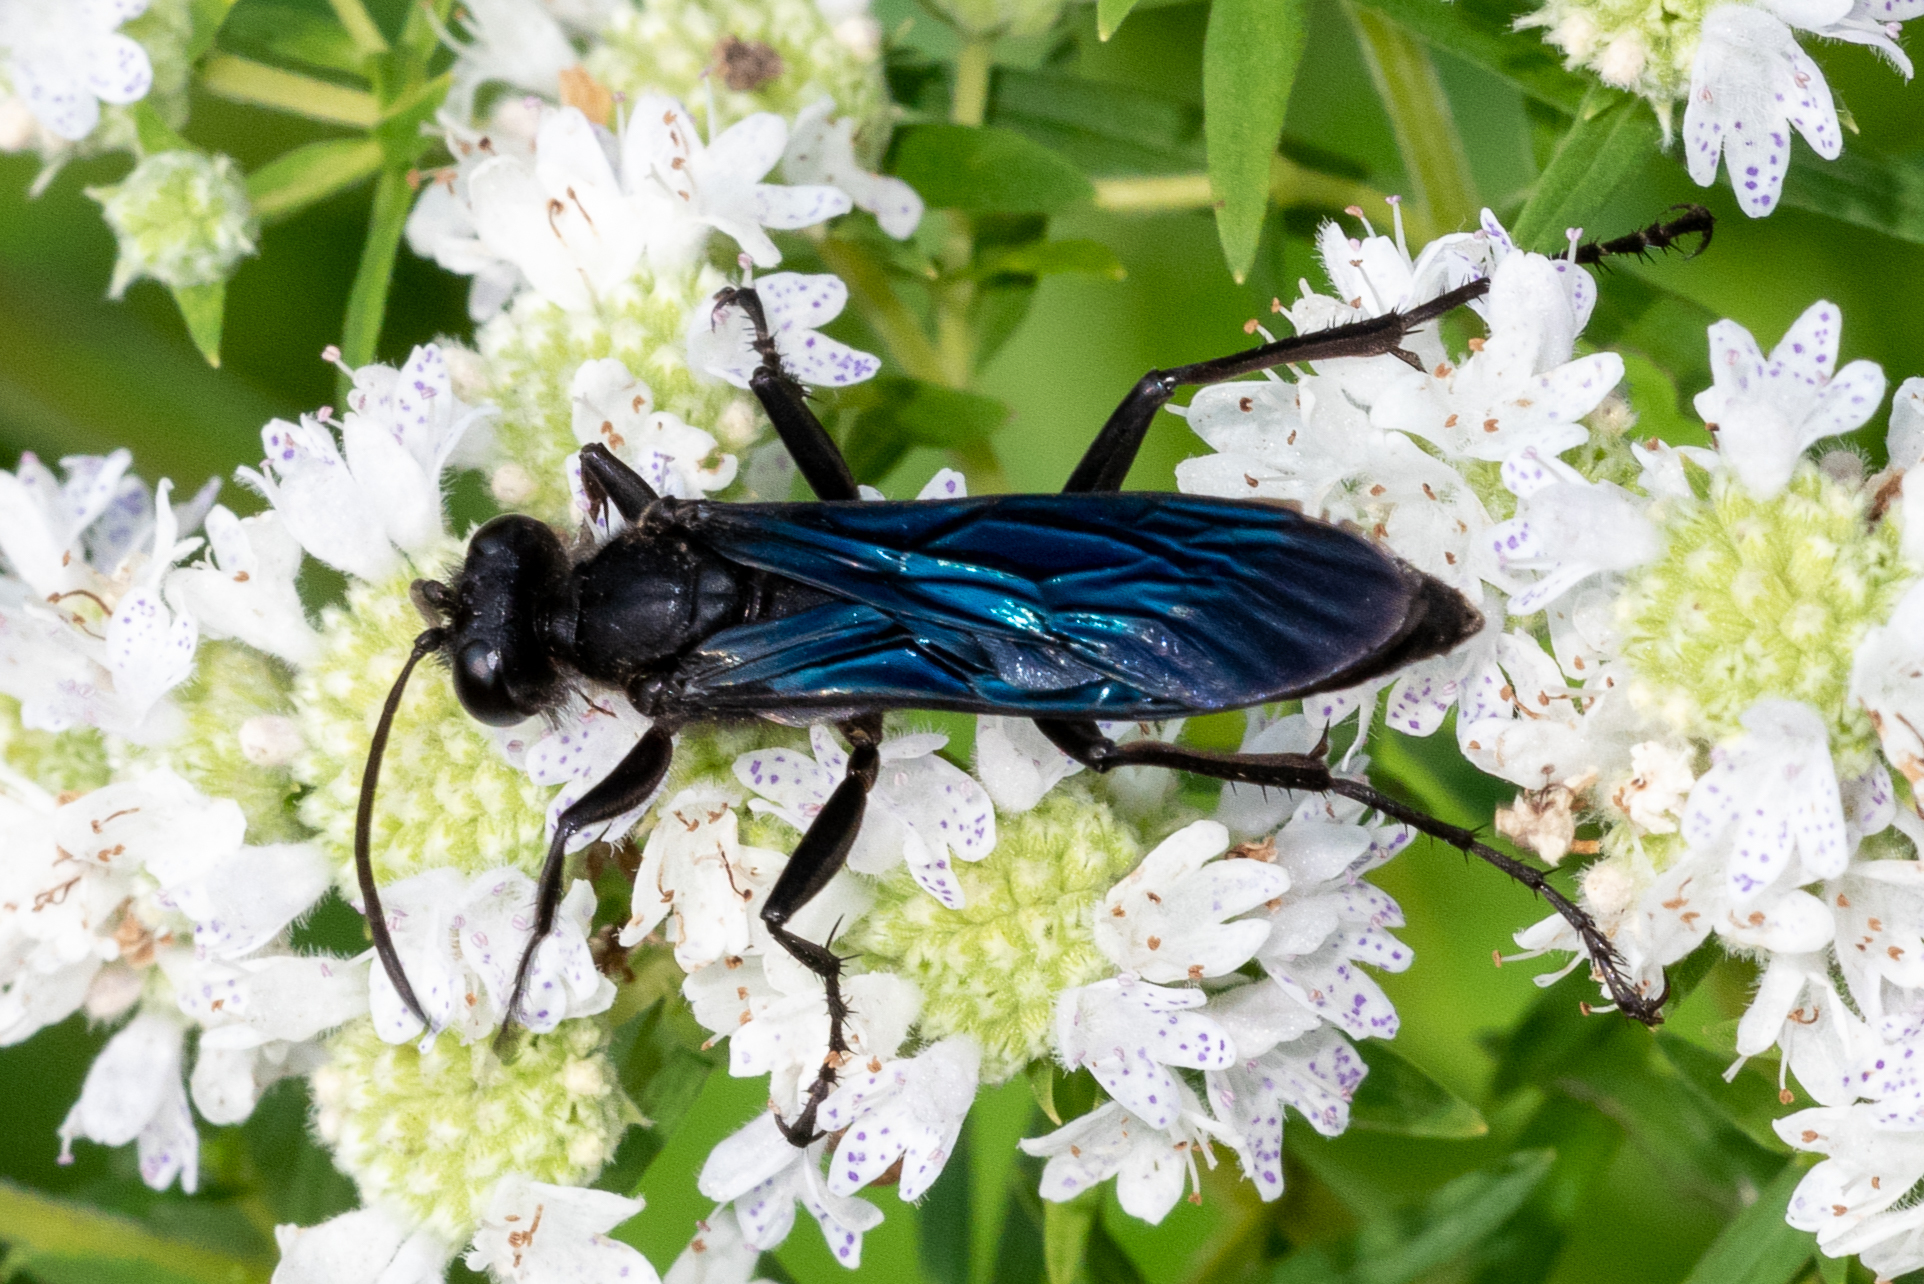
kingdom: Animalia
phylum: Arthropoda
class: Insecta
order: Hymenoptera
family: Sphecidae
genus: Sphex
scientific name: Sphex pensylvanicus
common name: Great black digger wasp
